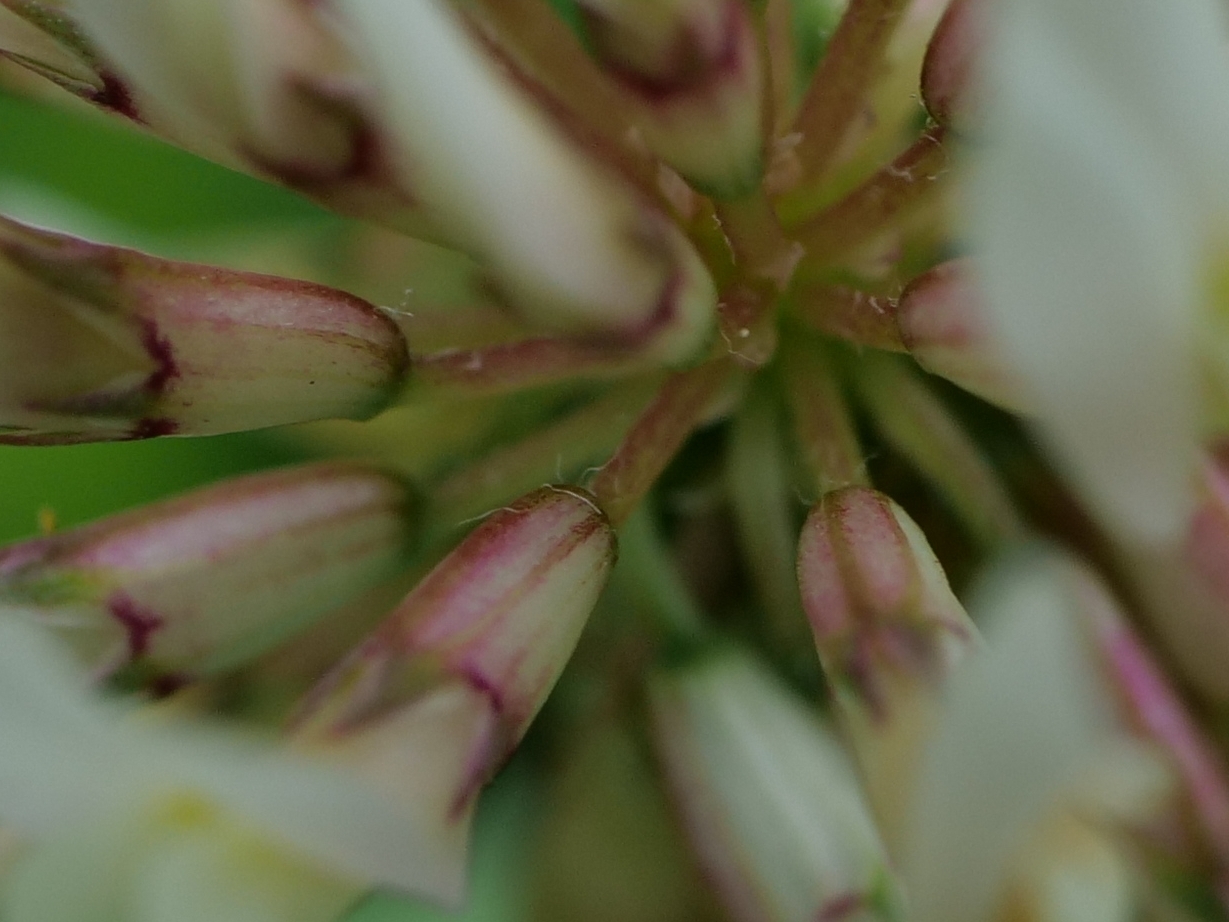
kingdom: Plantae
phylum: Tracheophyta
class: Magnoliopsida
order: Fabales
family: Fabaceae
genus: Trifolium
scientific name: Trifolium repens
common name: White clover
